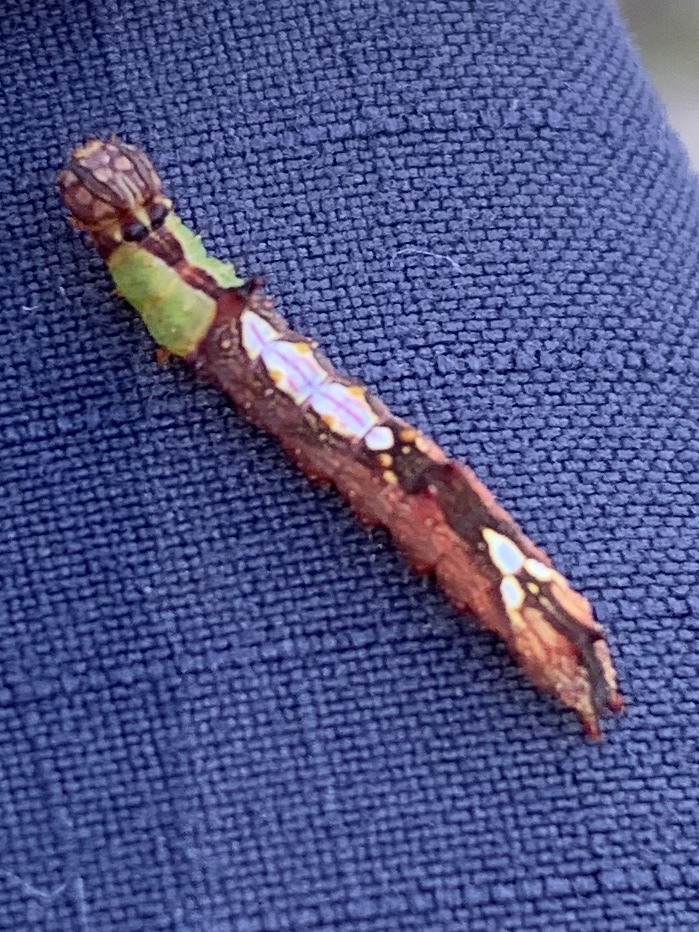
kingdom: Animalia
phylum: Arthropoda
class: Insecta
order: Lepidoptera
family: Notodontidae
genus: Schizura
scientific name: Schizura ipomaeae
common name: Morning-glory prominent
